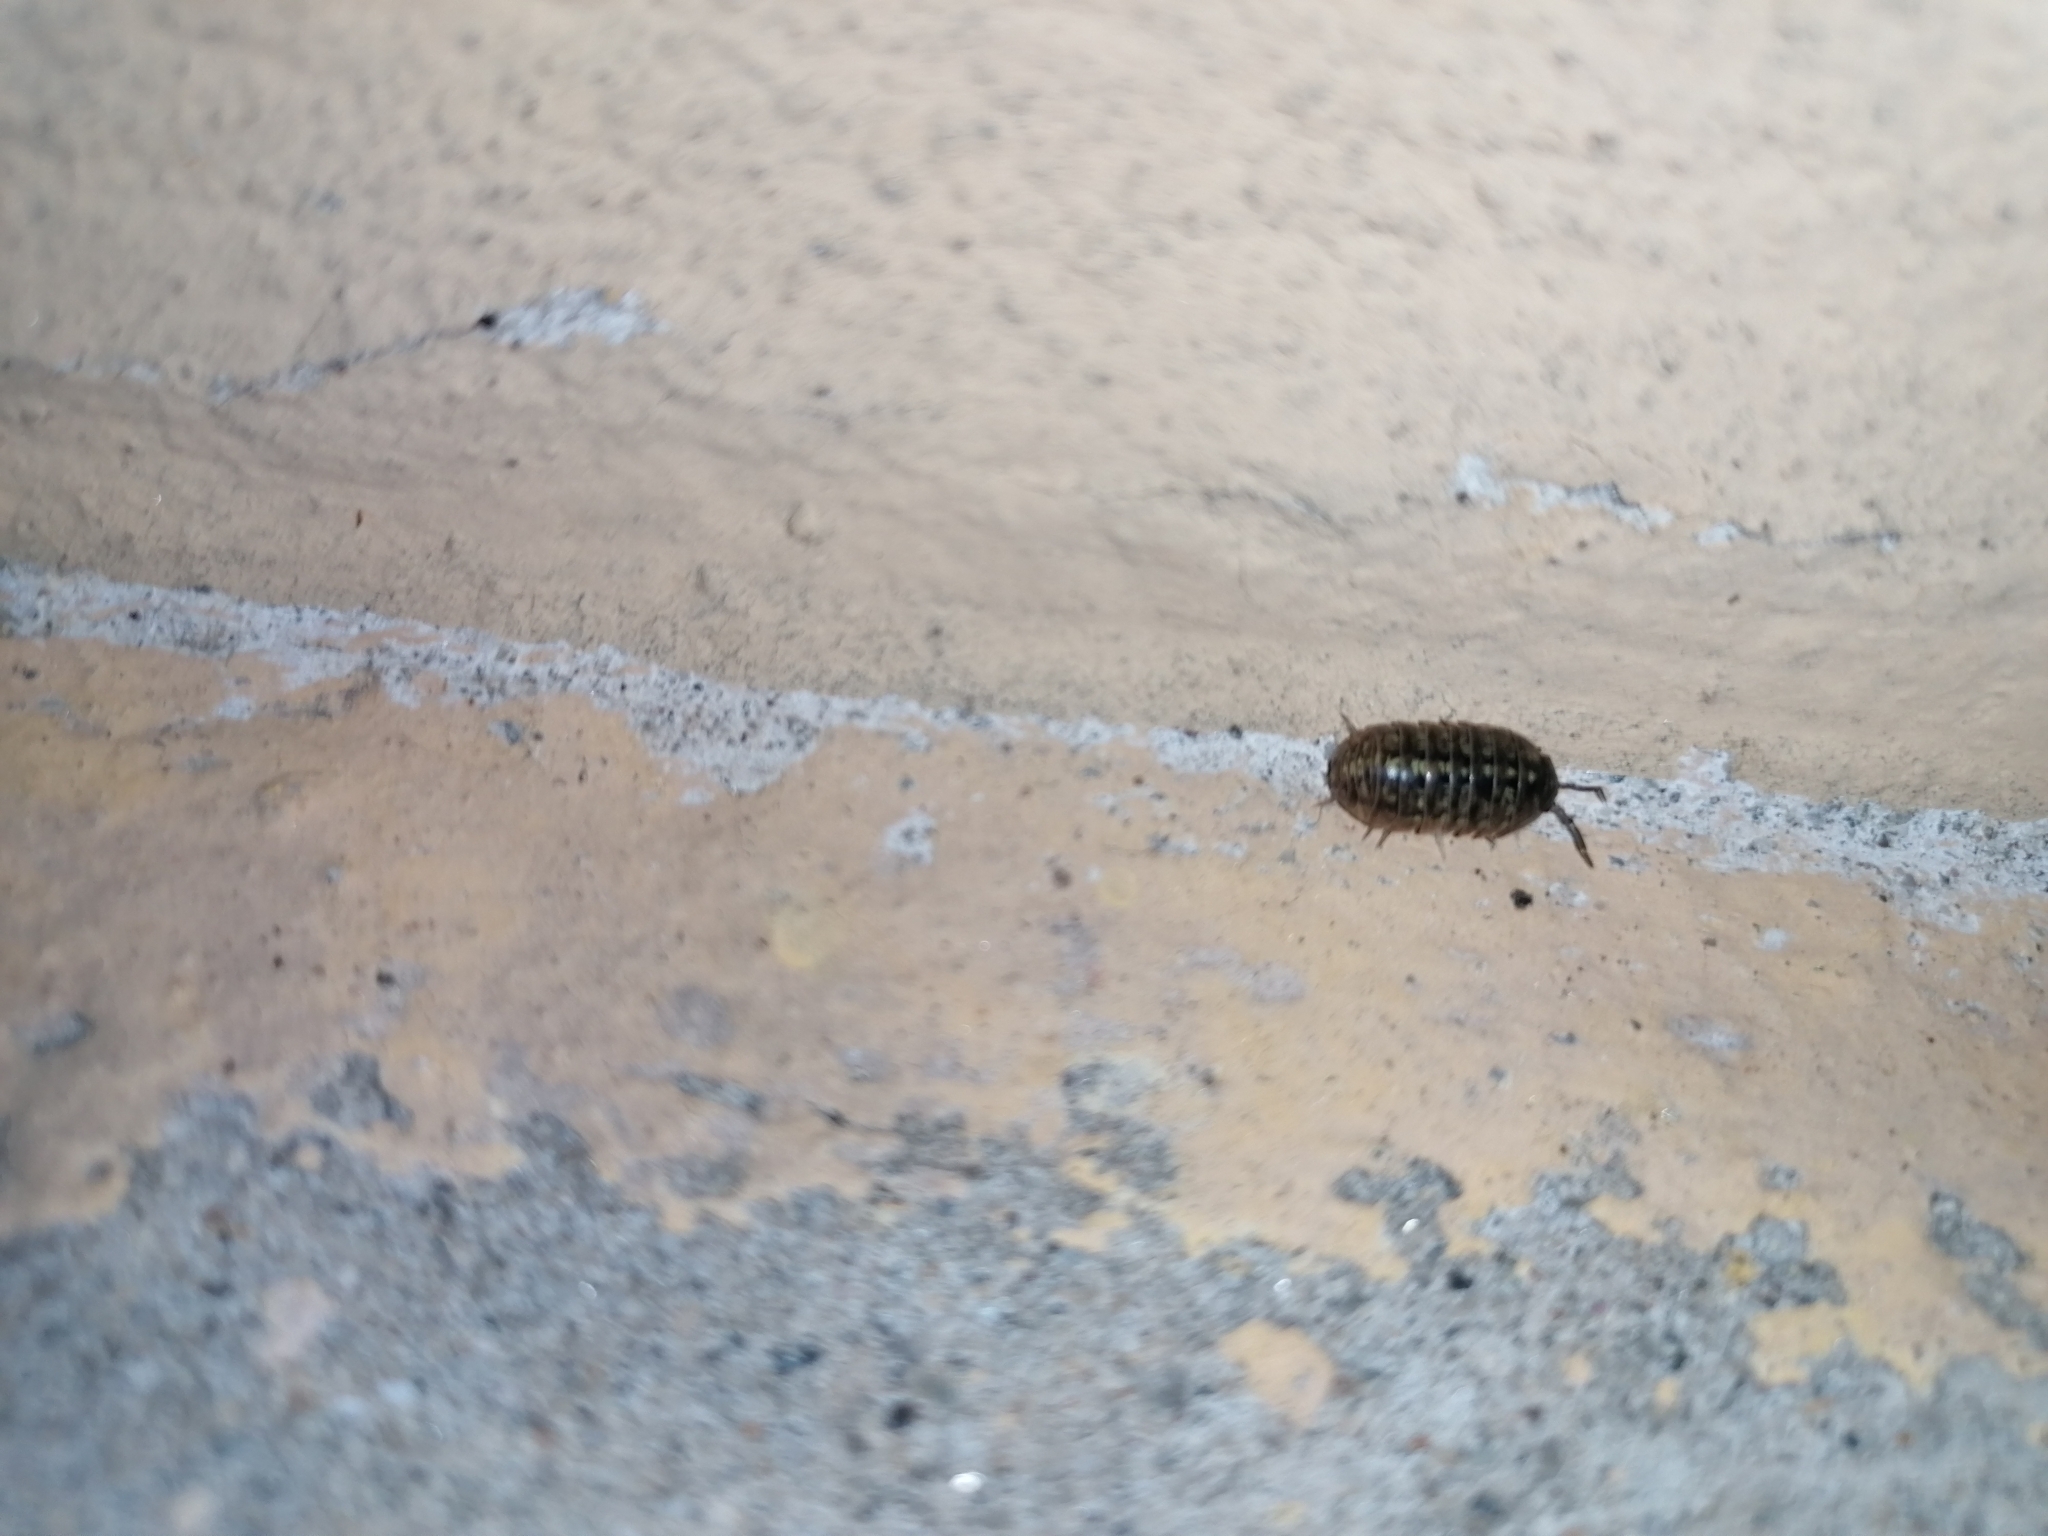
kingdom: Animalia
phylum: Arthropoda
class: Malacostraca
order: Isopoda
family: Armadillidiidae
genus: Armadillidium
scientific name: Armadillidium versicolor
